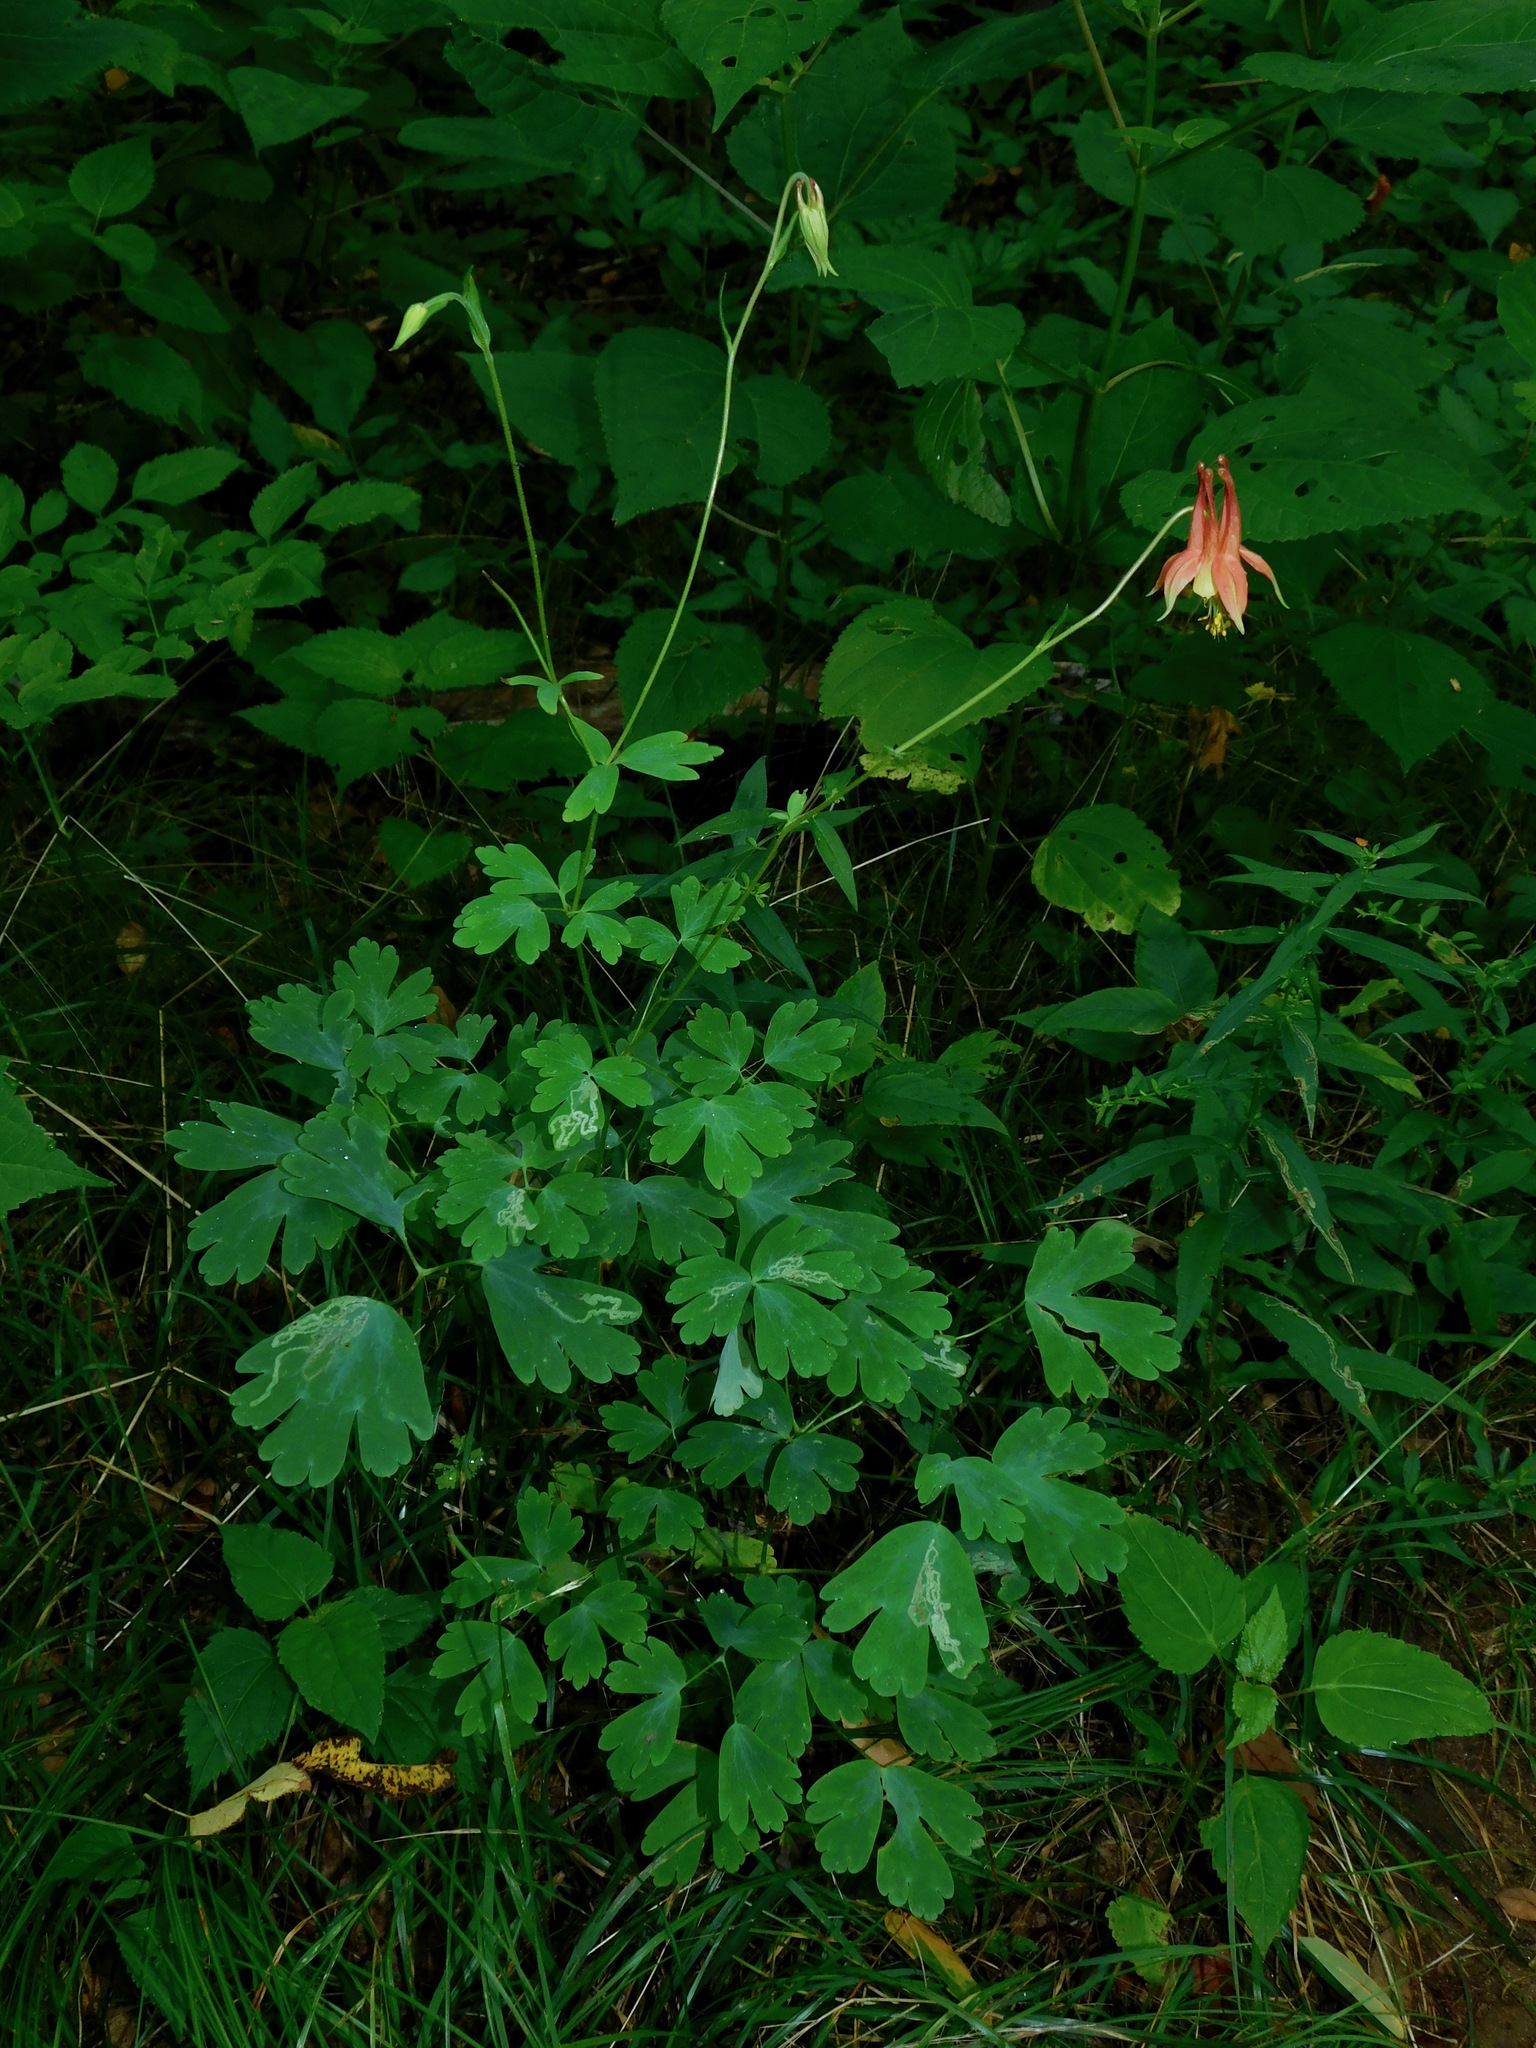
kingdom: Plantae
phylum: Tracheophyta
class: Magnoliopsida
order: Ranunculales
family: Ranunculaceae
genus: Aquilegia
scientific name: Aquilegia canadensis
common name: American columbine
